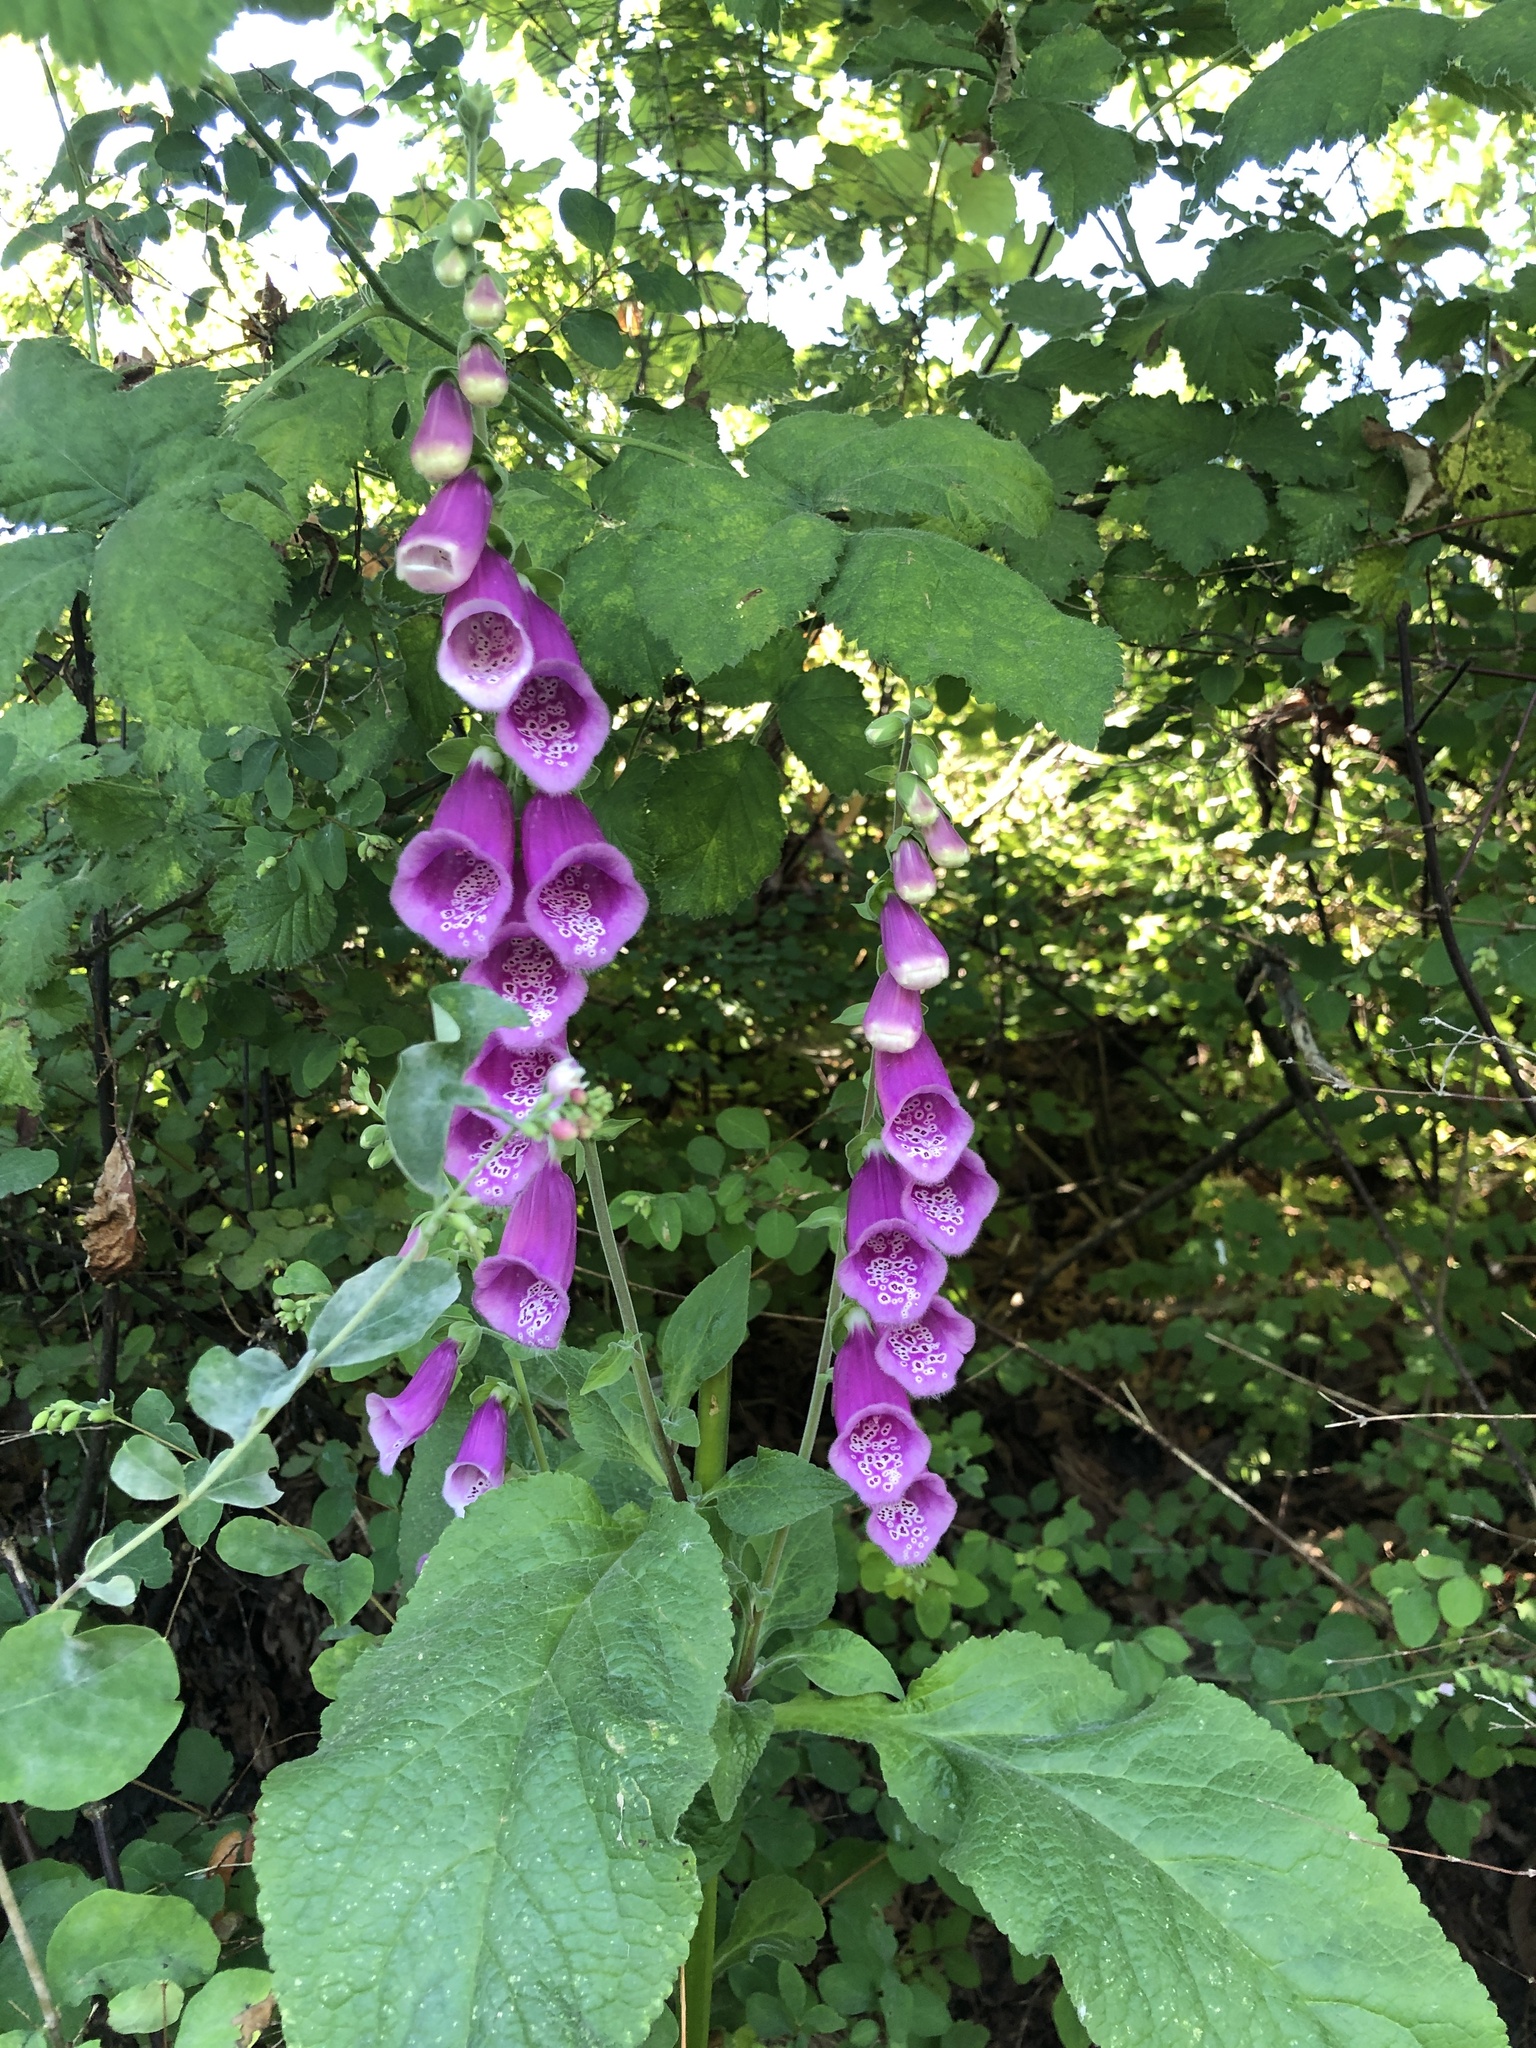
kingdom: Plantae
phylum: Tracheophyta
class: Magnoliopsida
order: Lamiales
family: Plantaginaceae
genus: Digitalis
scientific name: Digitalis purpurea
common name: Foxglove
